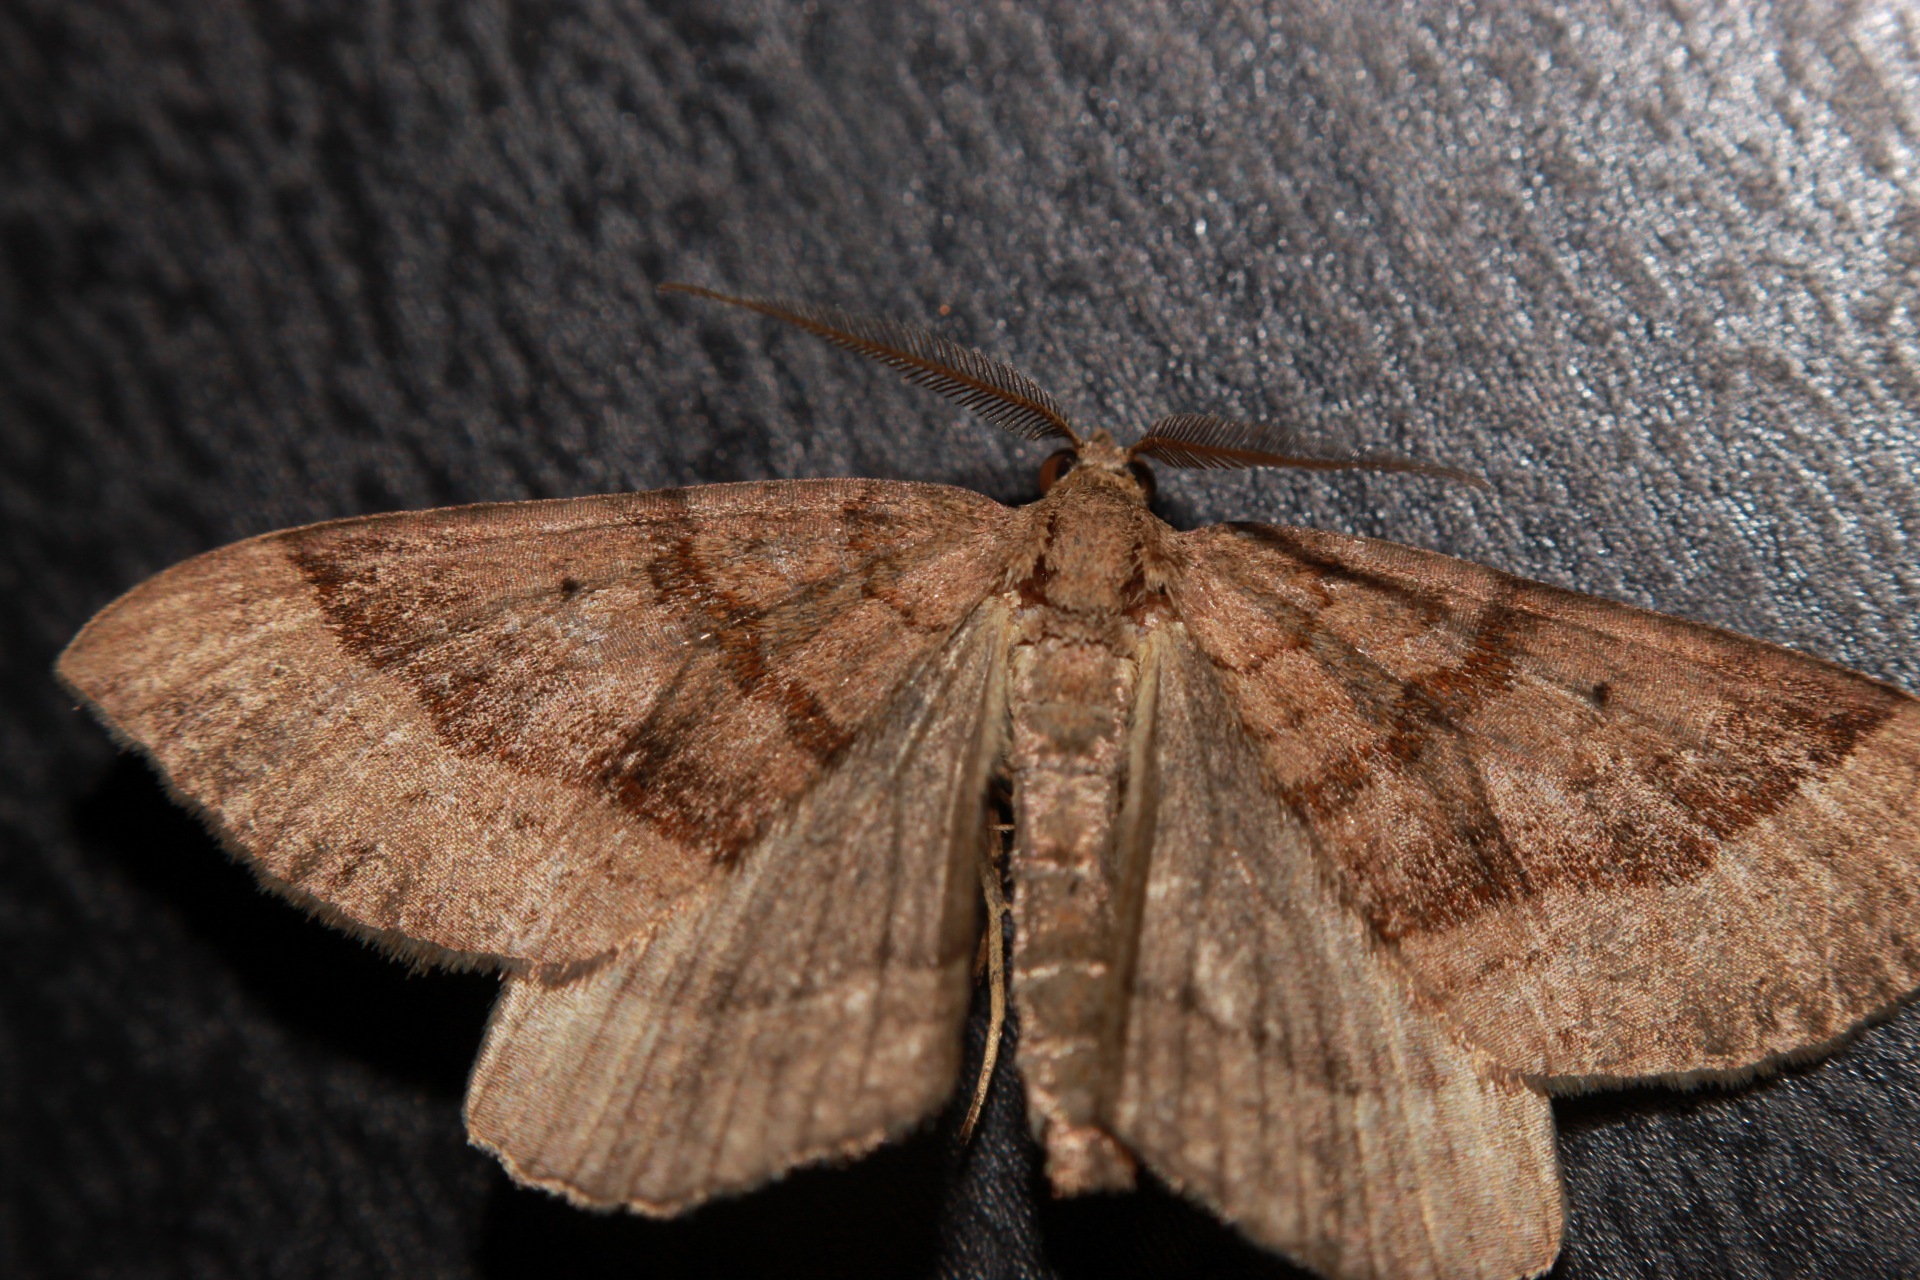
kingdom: Animalia
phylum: Arthropoda
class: Insecta
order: Lepidoptera
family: Geometridae
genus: Scotopteryx
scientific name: Scotopteryx chenopodiata
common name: Shaded broad-bar
